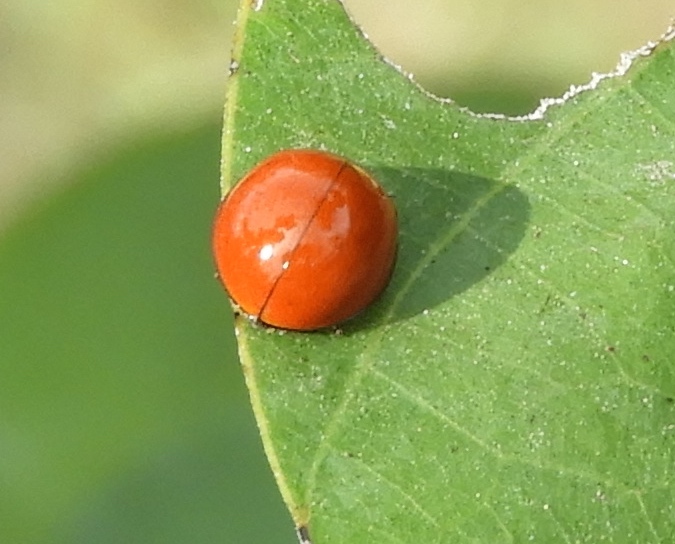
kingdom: Animalia
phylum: Arthropoda
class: Insecta
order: Coleoptera
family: Coccinellidae
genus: Cycloneda
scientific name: Cycloneda sanguinea
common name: Ladybird beetle
